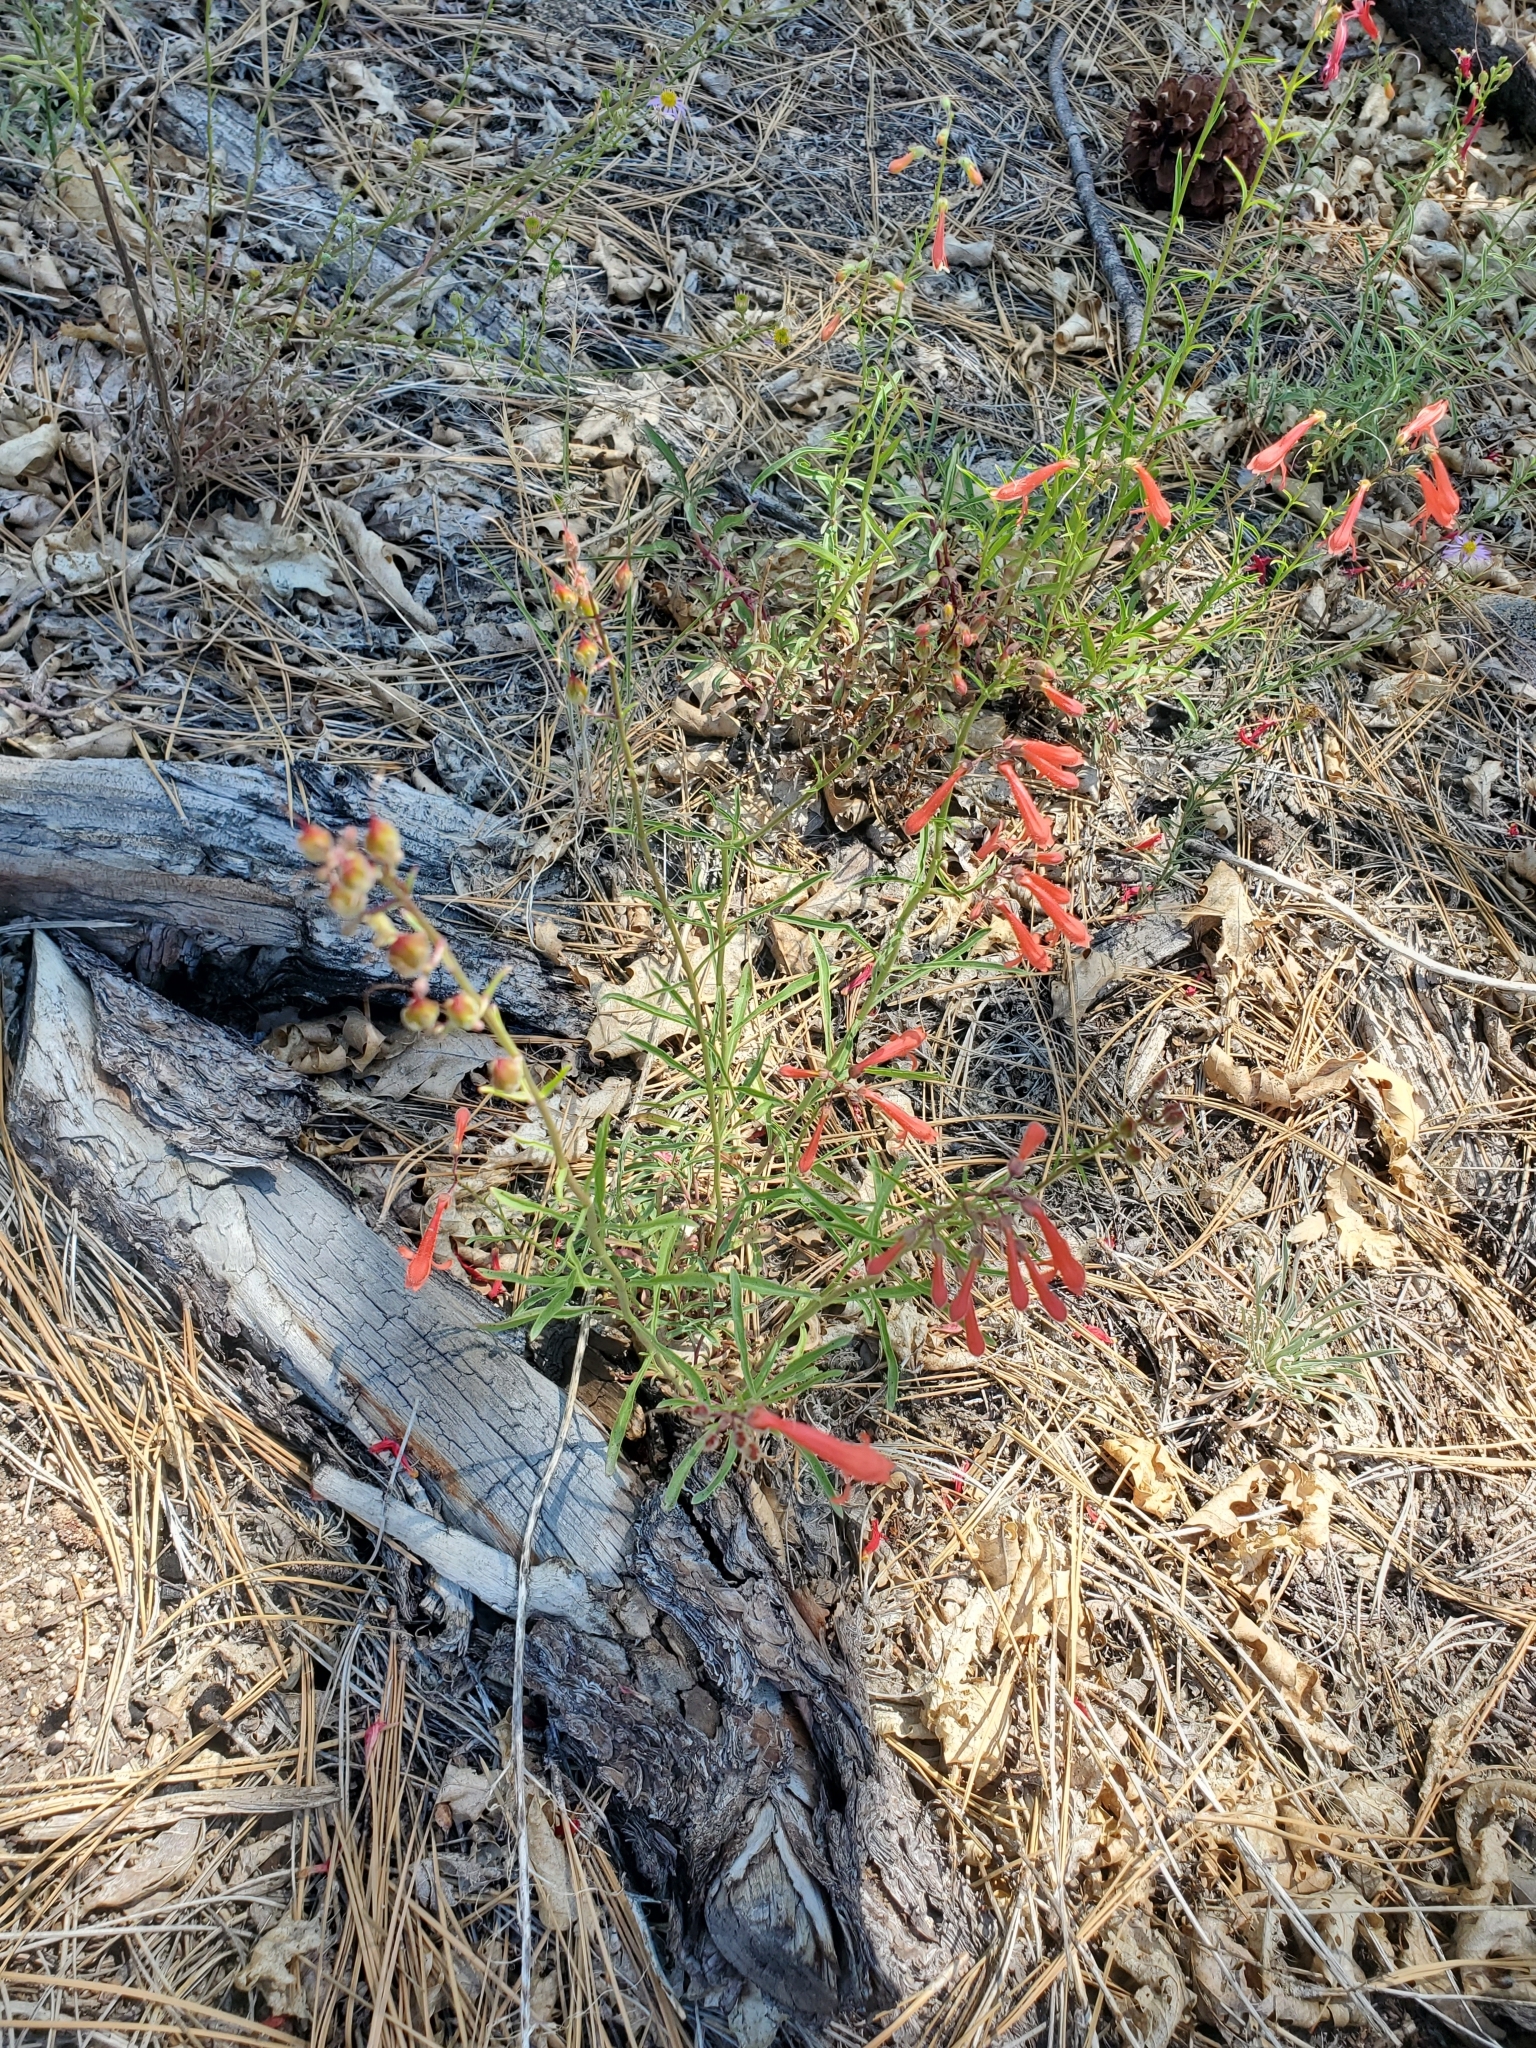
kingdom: Plantae
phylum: Tracheophyta
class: Magnoliopsida
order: Lamiales
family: Plantaginaceae
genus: Penstemon
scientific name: Penstemon rostriflorus
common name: Bridges's penstemon
